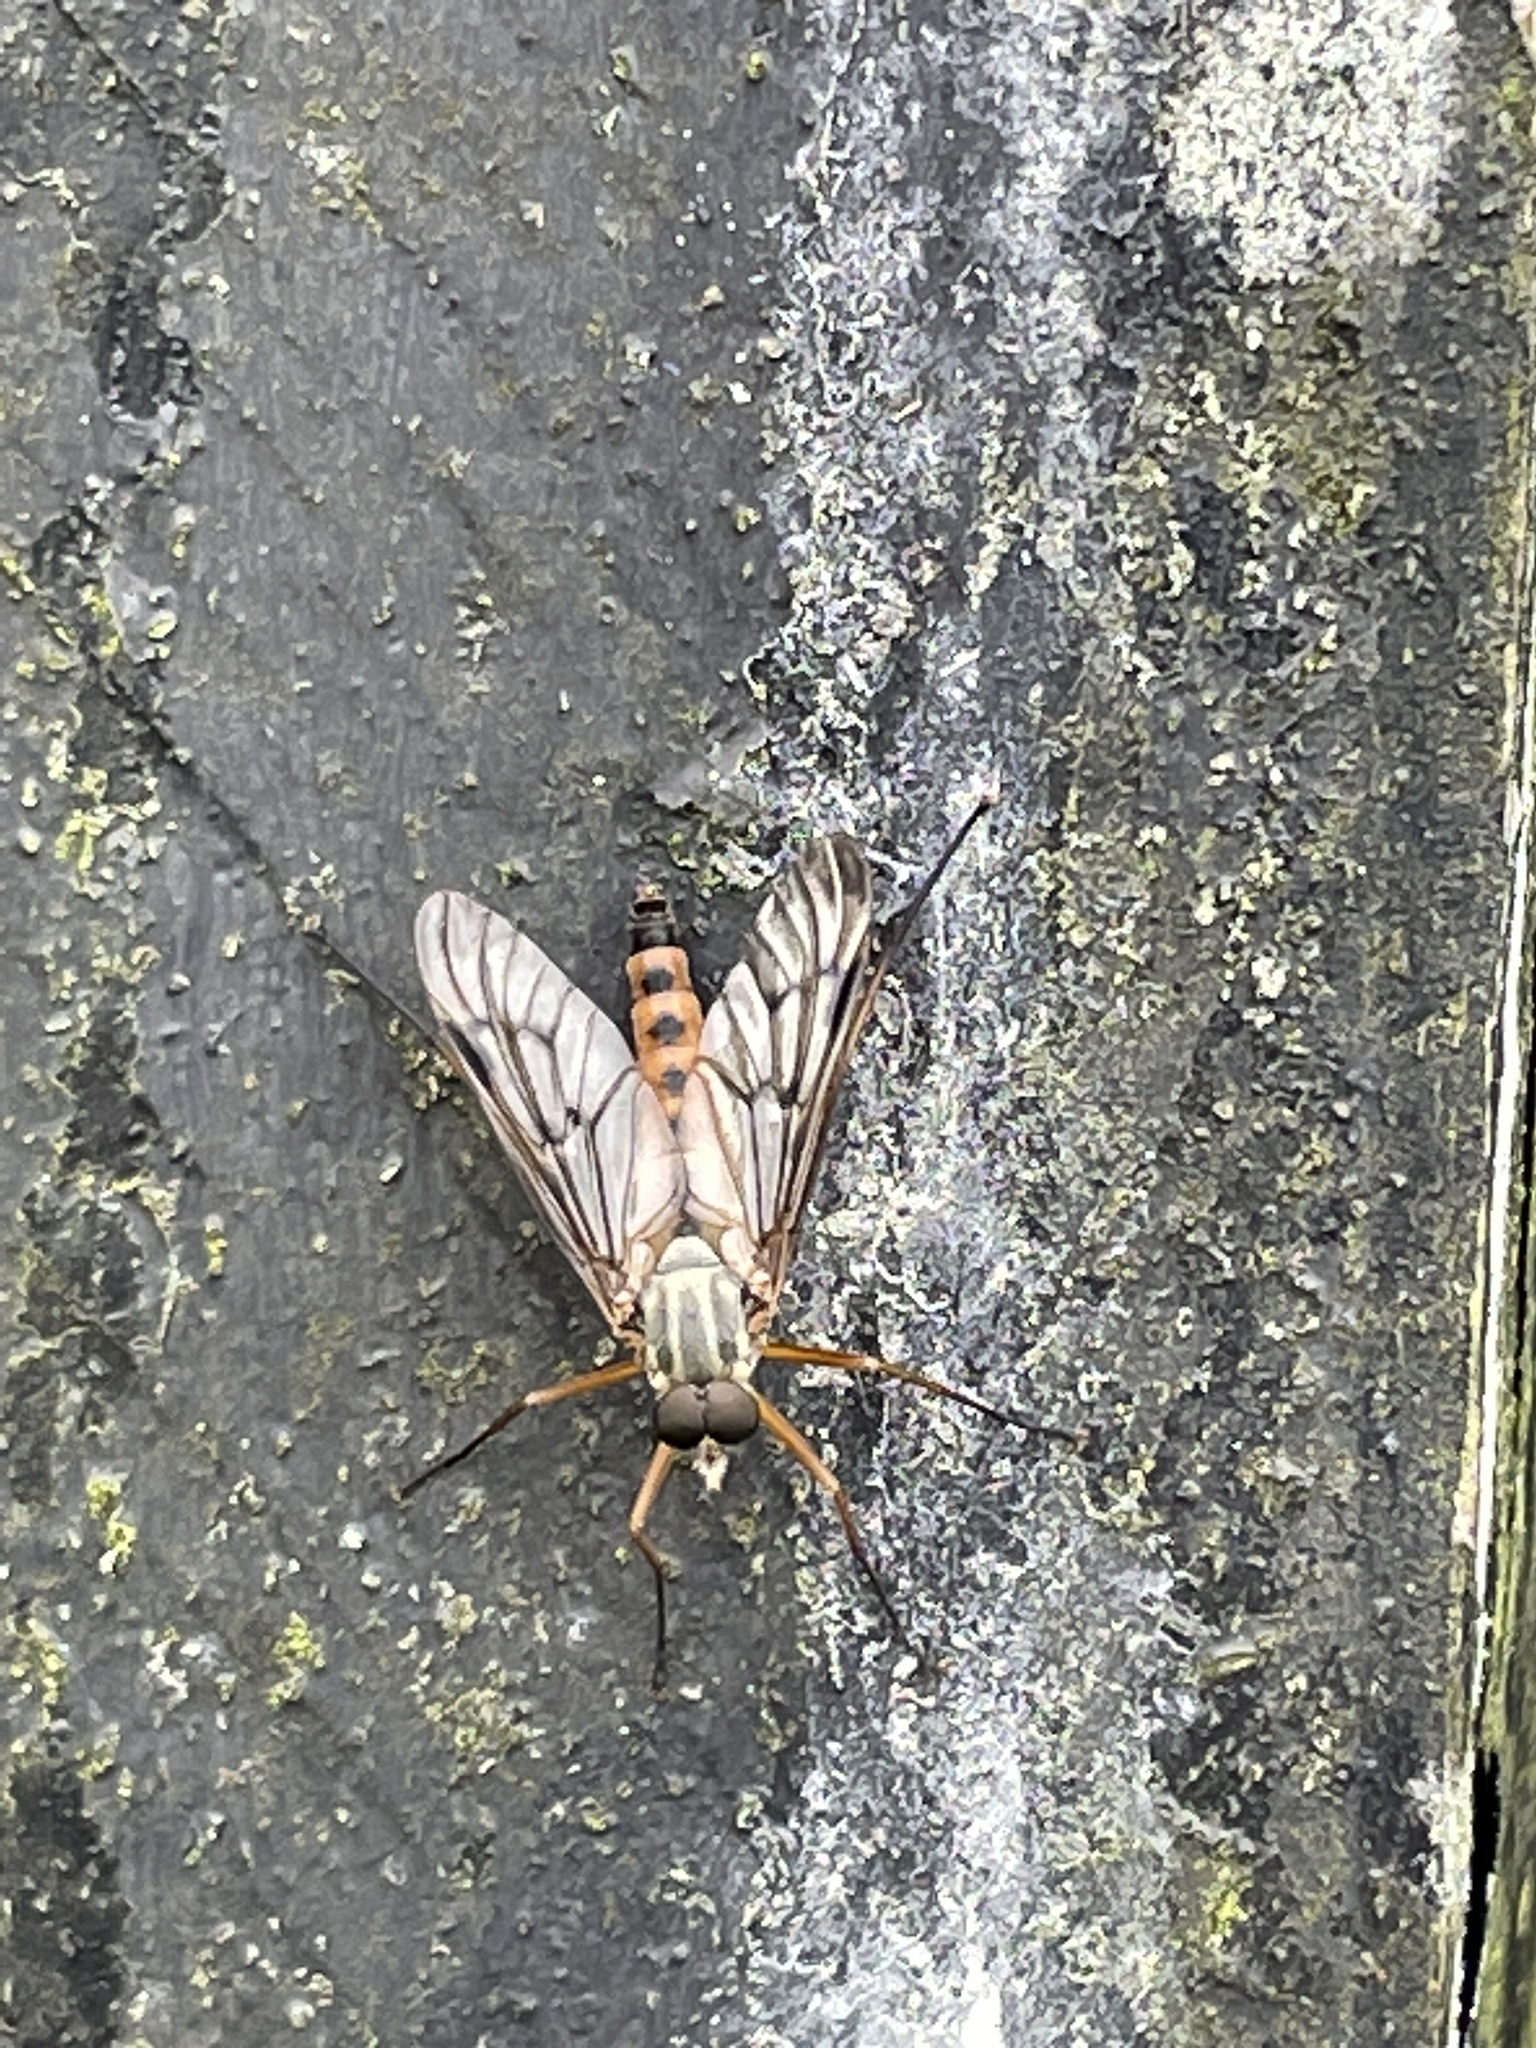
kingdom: Animalia
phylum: Arthropoda
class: Insecta
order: Diptera
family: Rhagionidae
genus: Rhagio
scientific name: Rhagio scolopacea
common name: Downlooker snipefly
